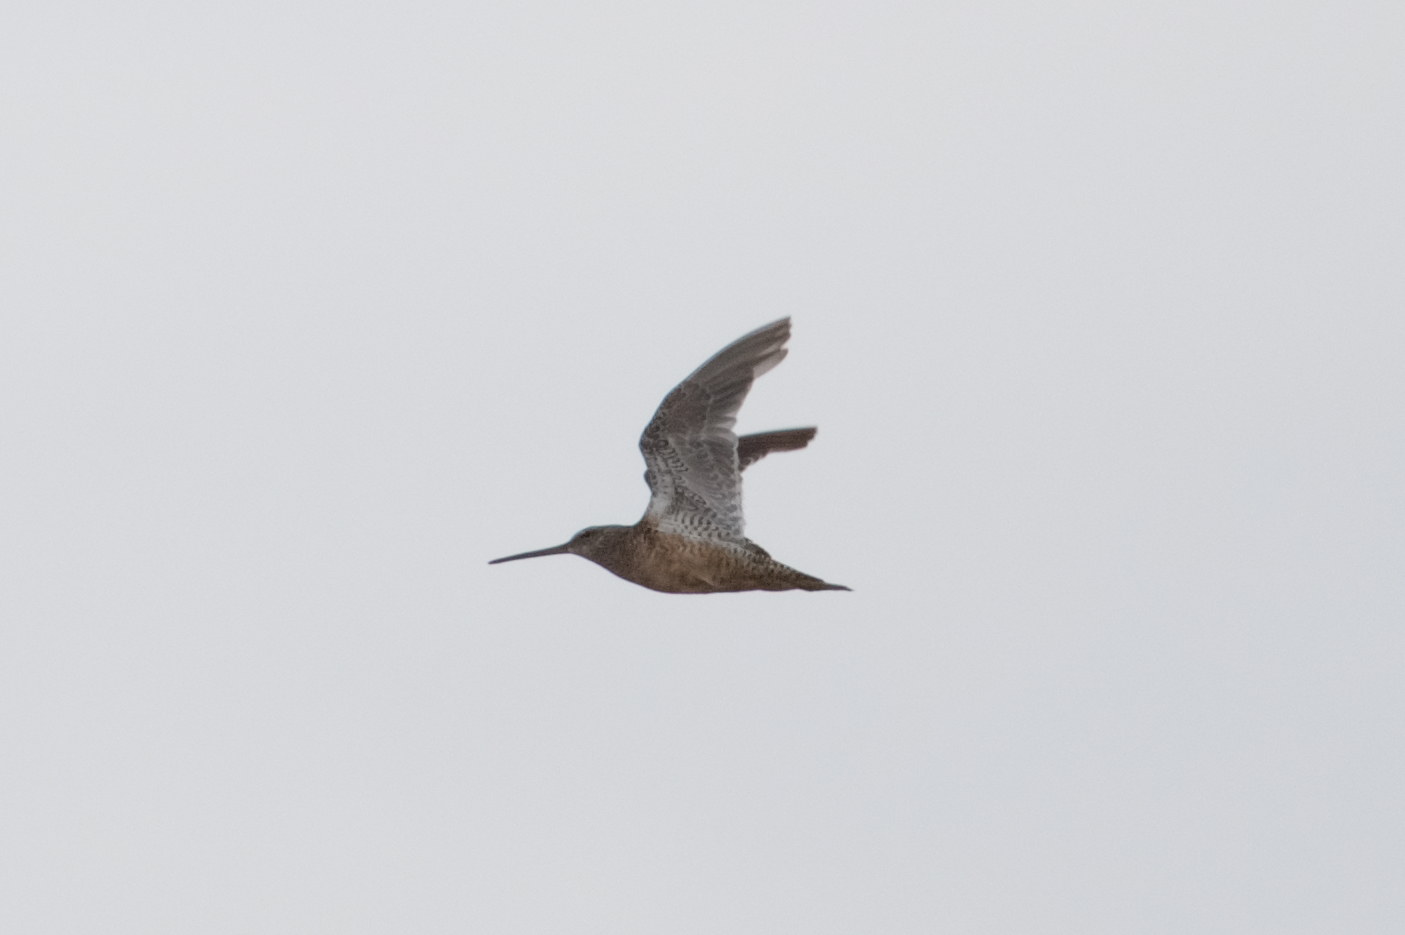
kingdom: Animalia
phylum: Chordata
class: Aves
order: Charadriiformes
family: Scolopacidae
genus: Limnodromus
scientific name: Limnodromus scolopaceus
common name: Long-billed dowitcher
